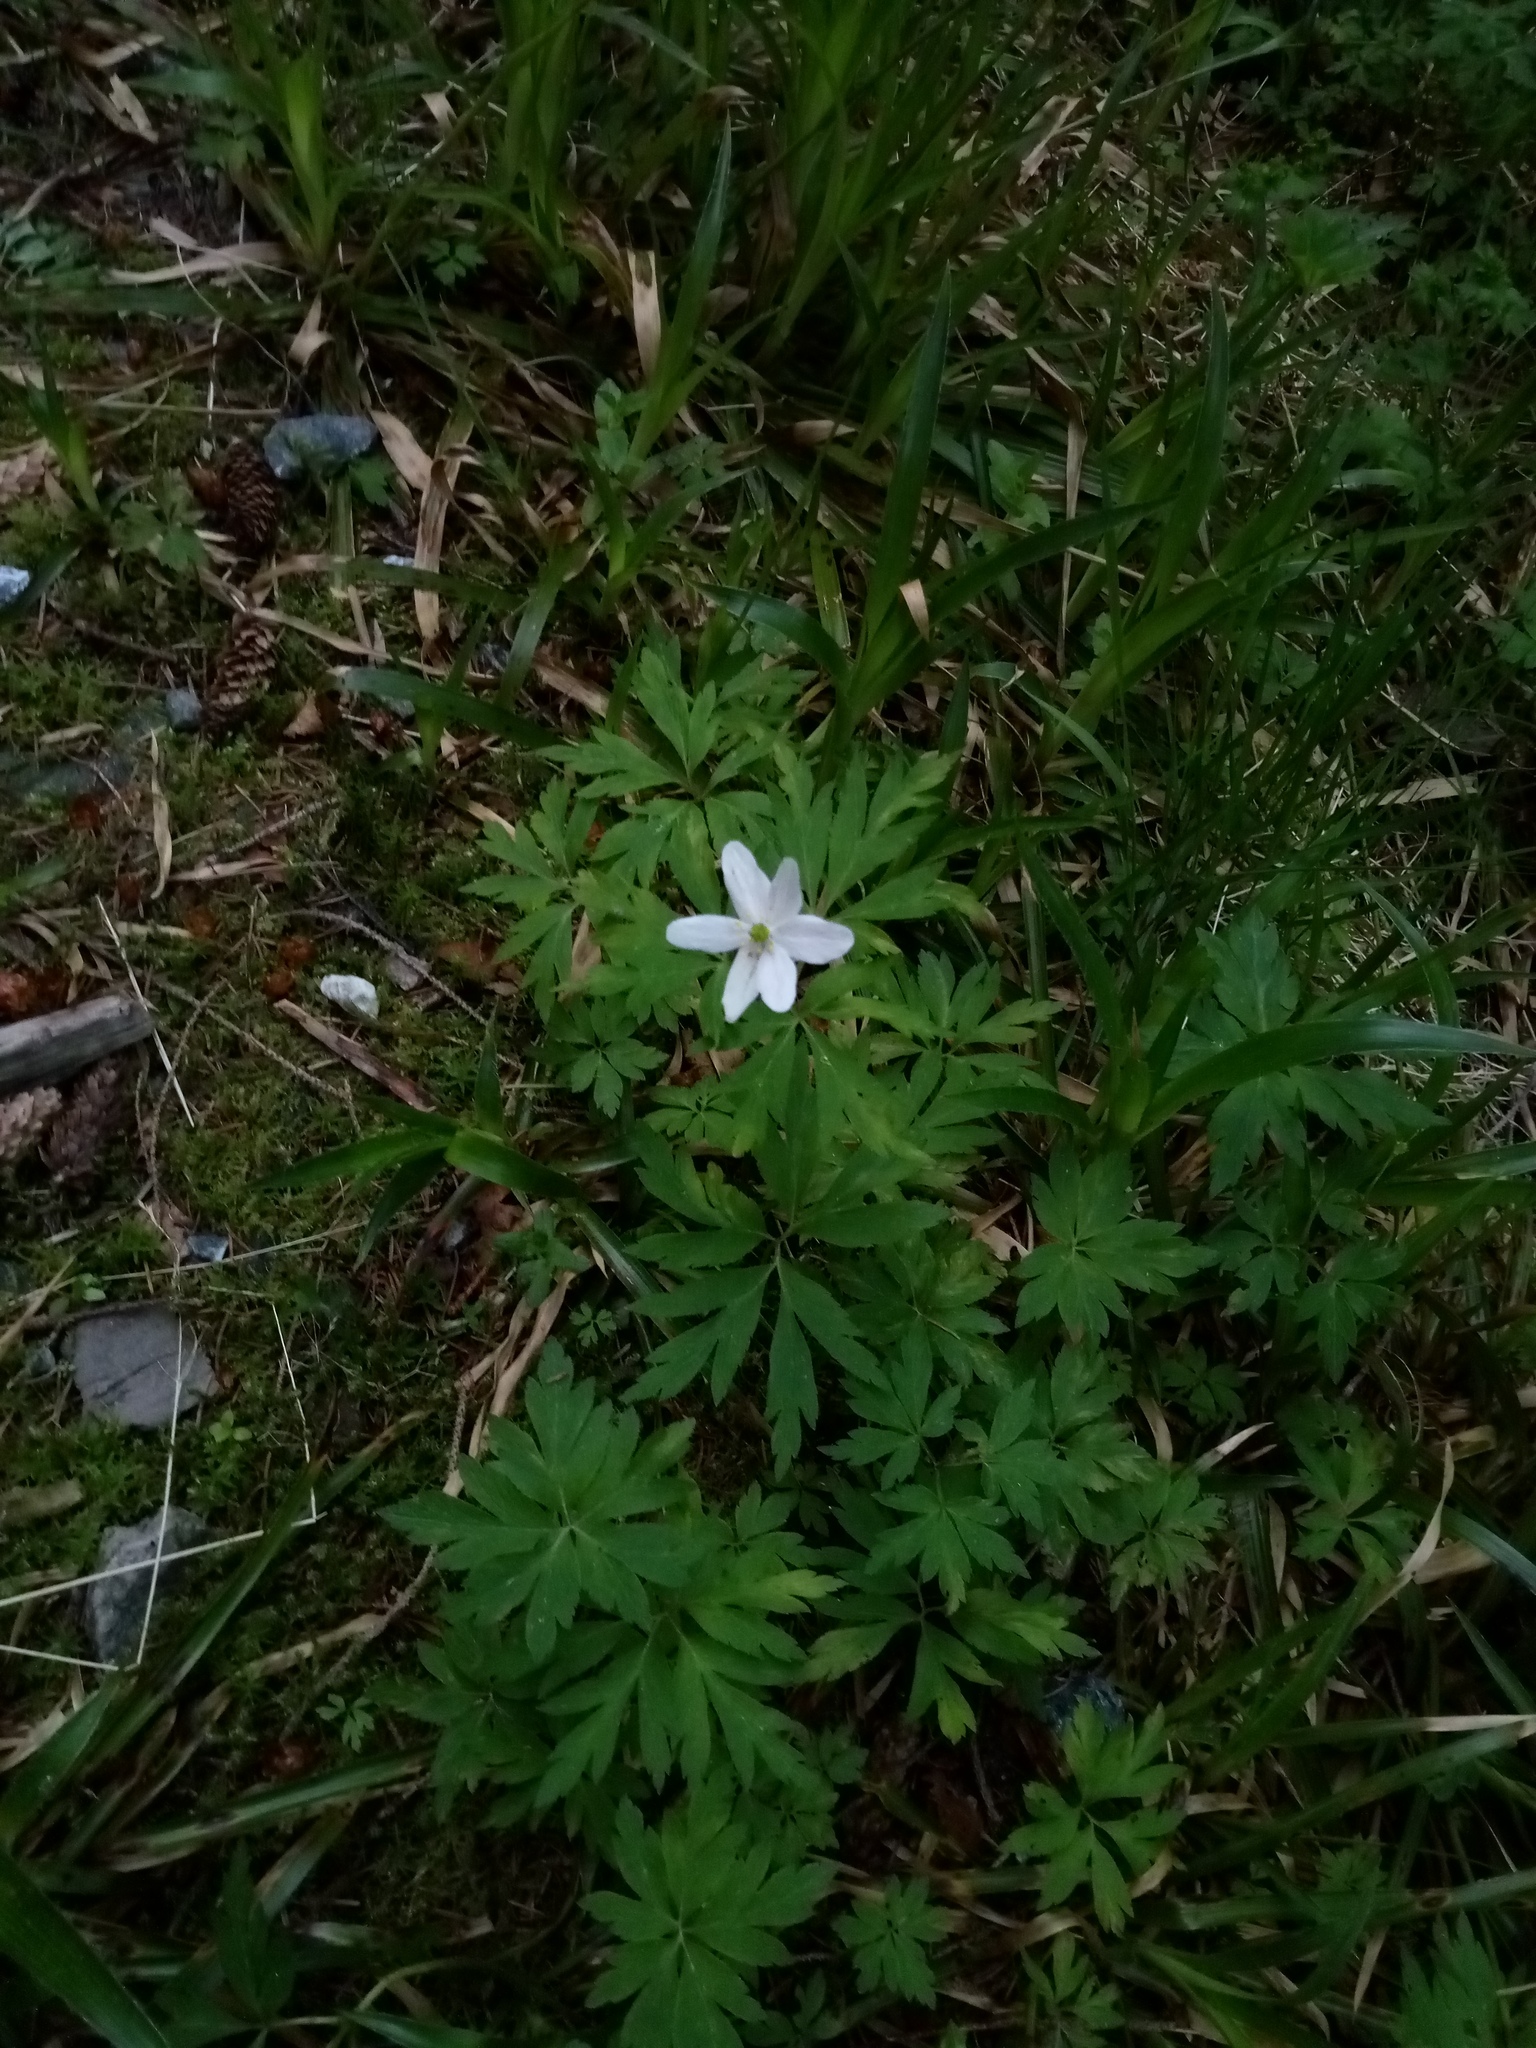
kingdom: Plantae
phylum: Tracheophyta
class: Magnoliopsida
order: Ranunculales
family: Ranunculaceae
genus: Anemone
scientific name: Anemone nemorosa
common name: Wood anemone
